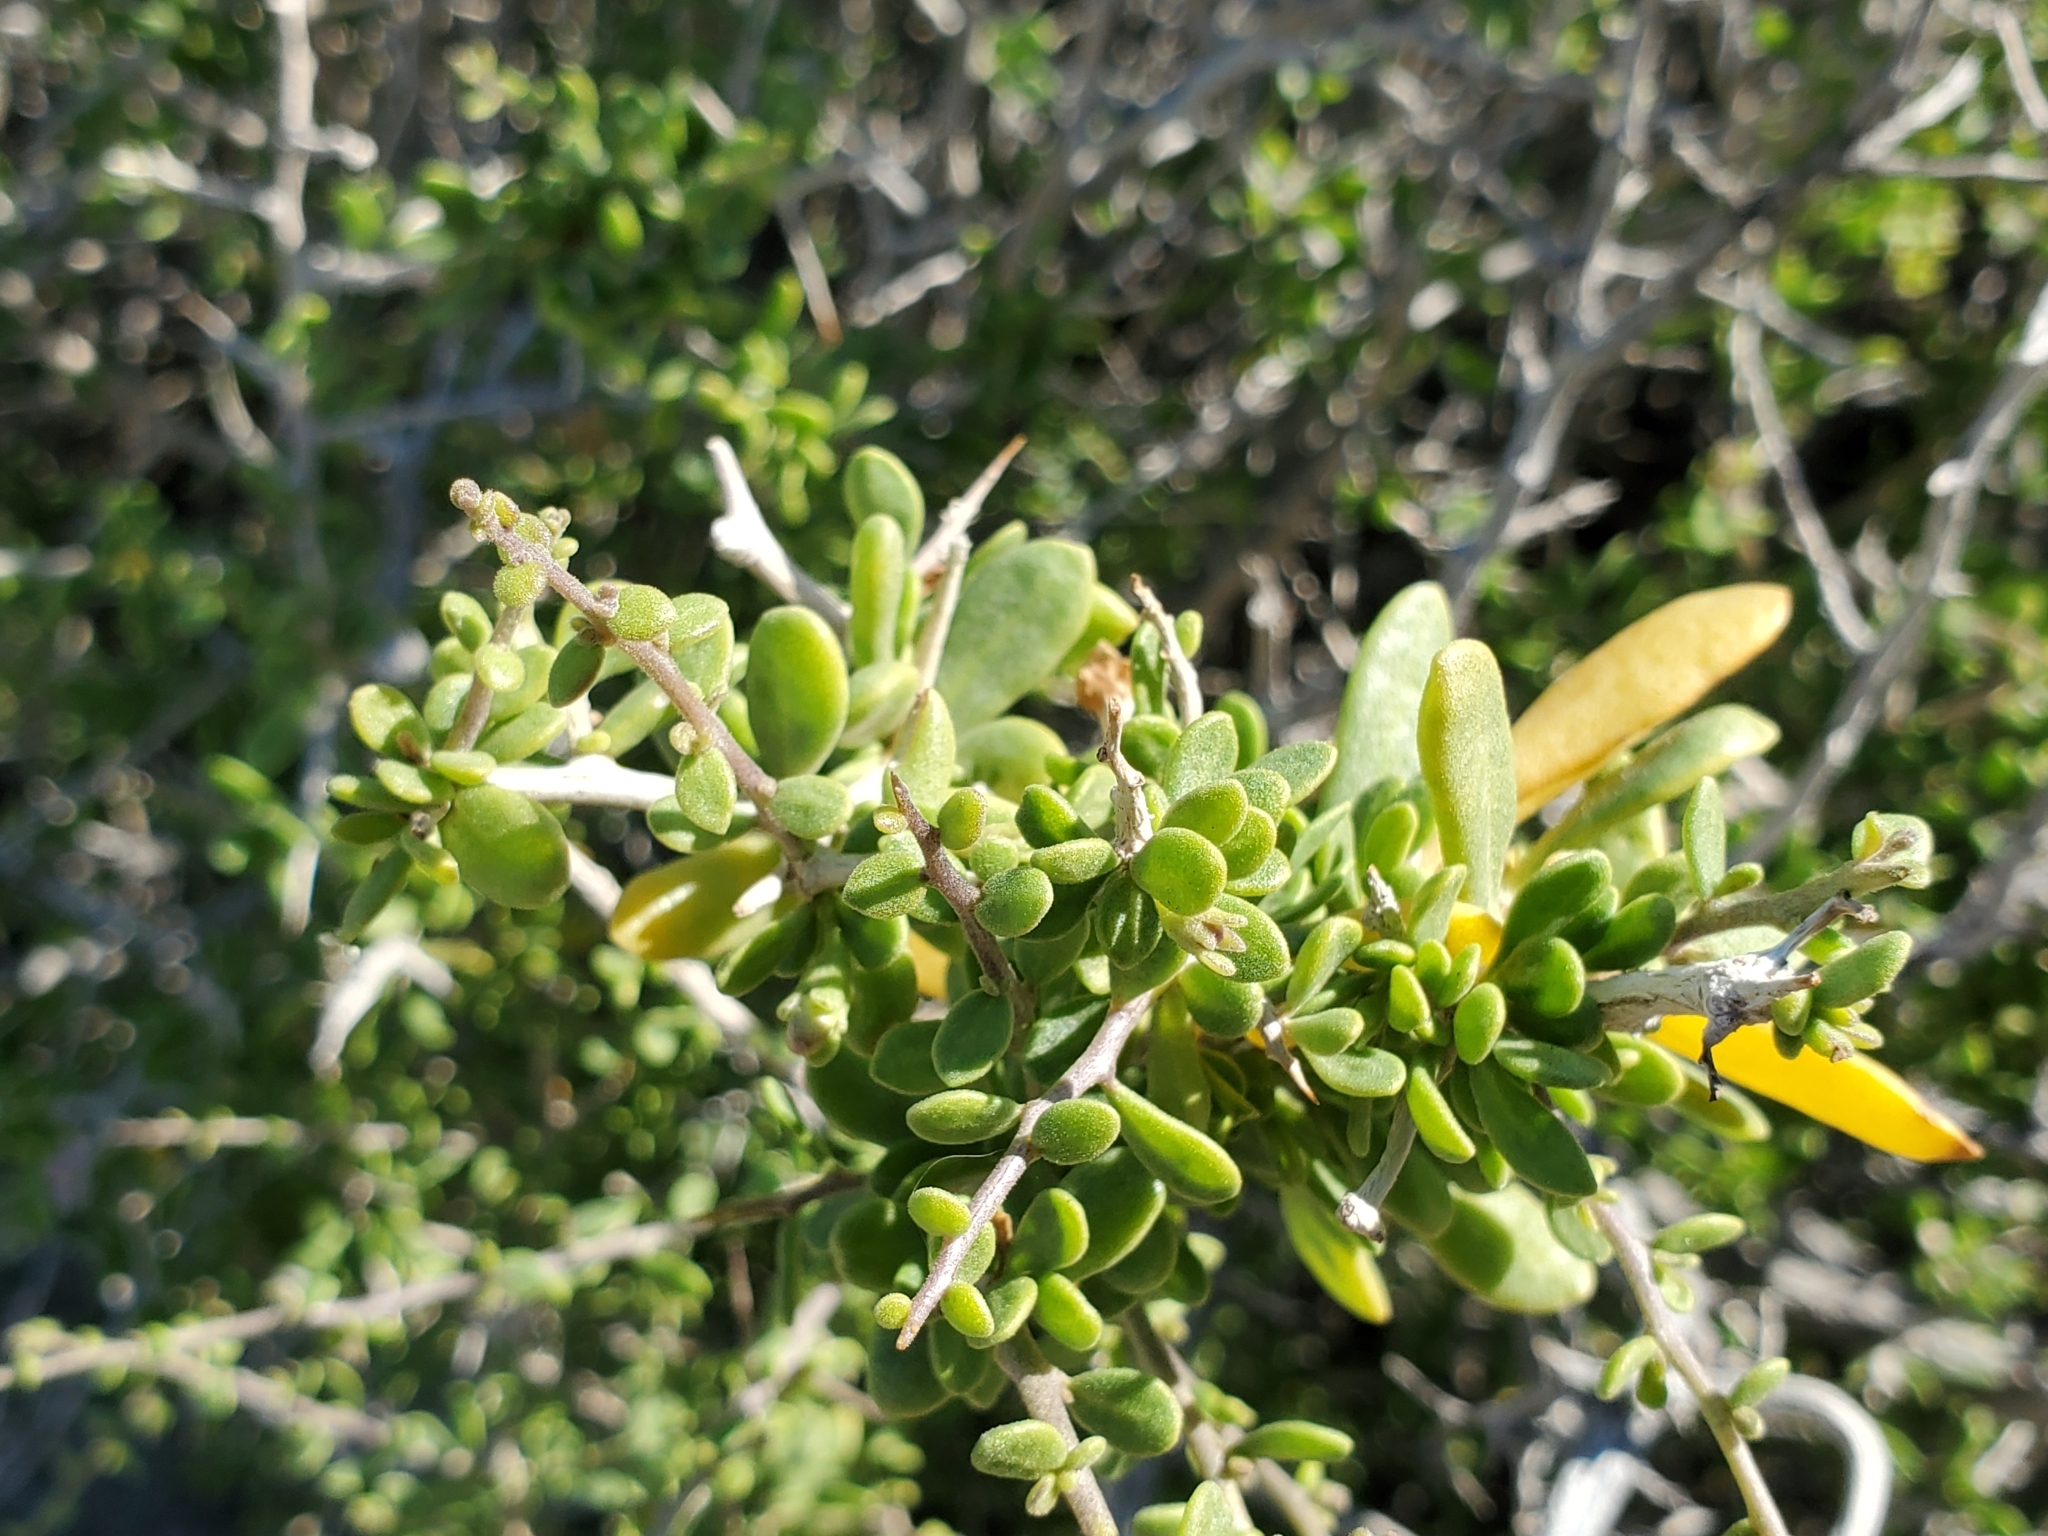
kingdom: Plantae
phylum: Tracheophyta
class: Magnoliopsida
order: Solanales
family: Solanaceae
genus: Lycium
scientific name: Lycium brevipes
